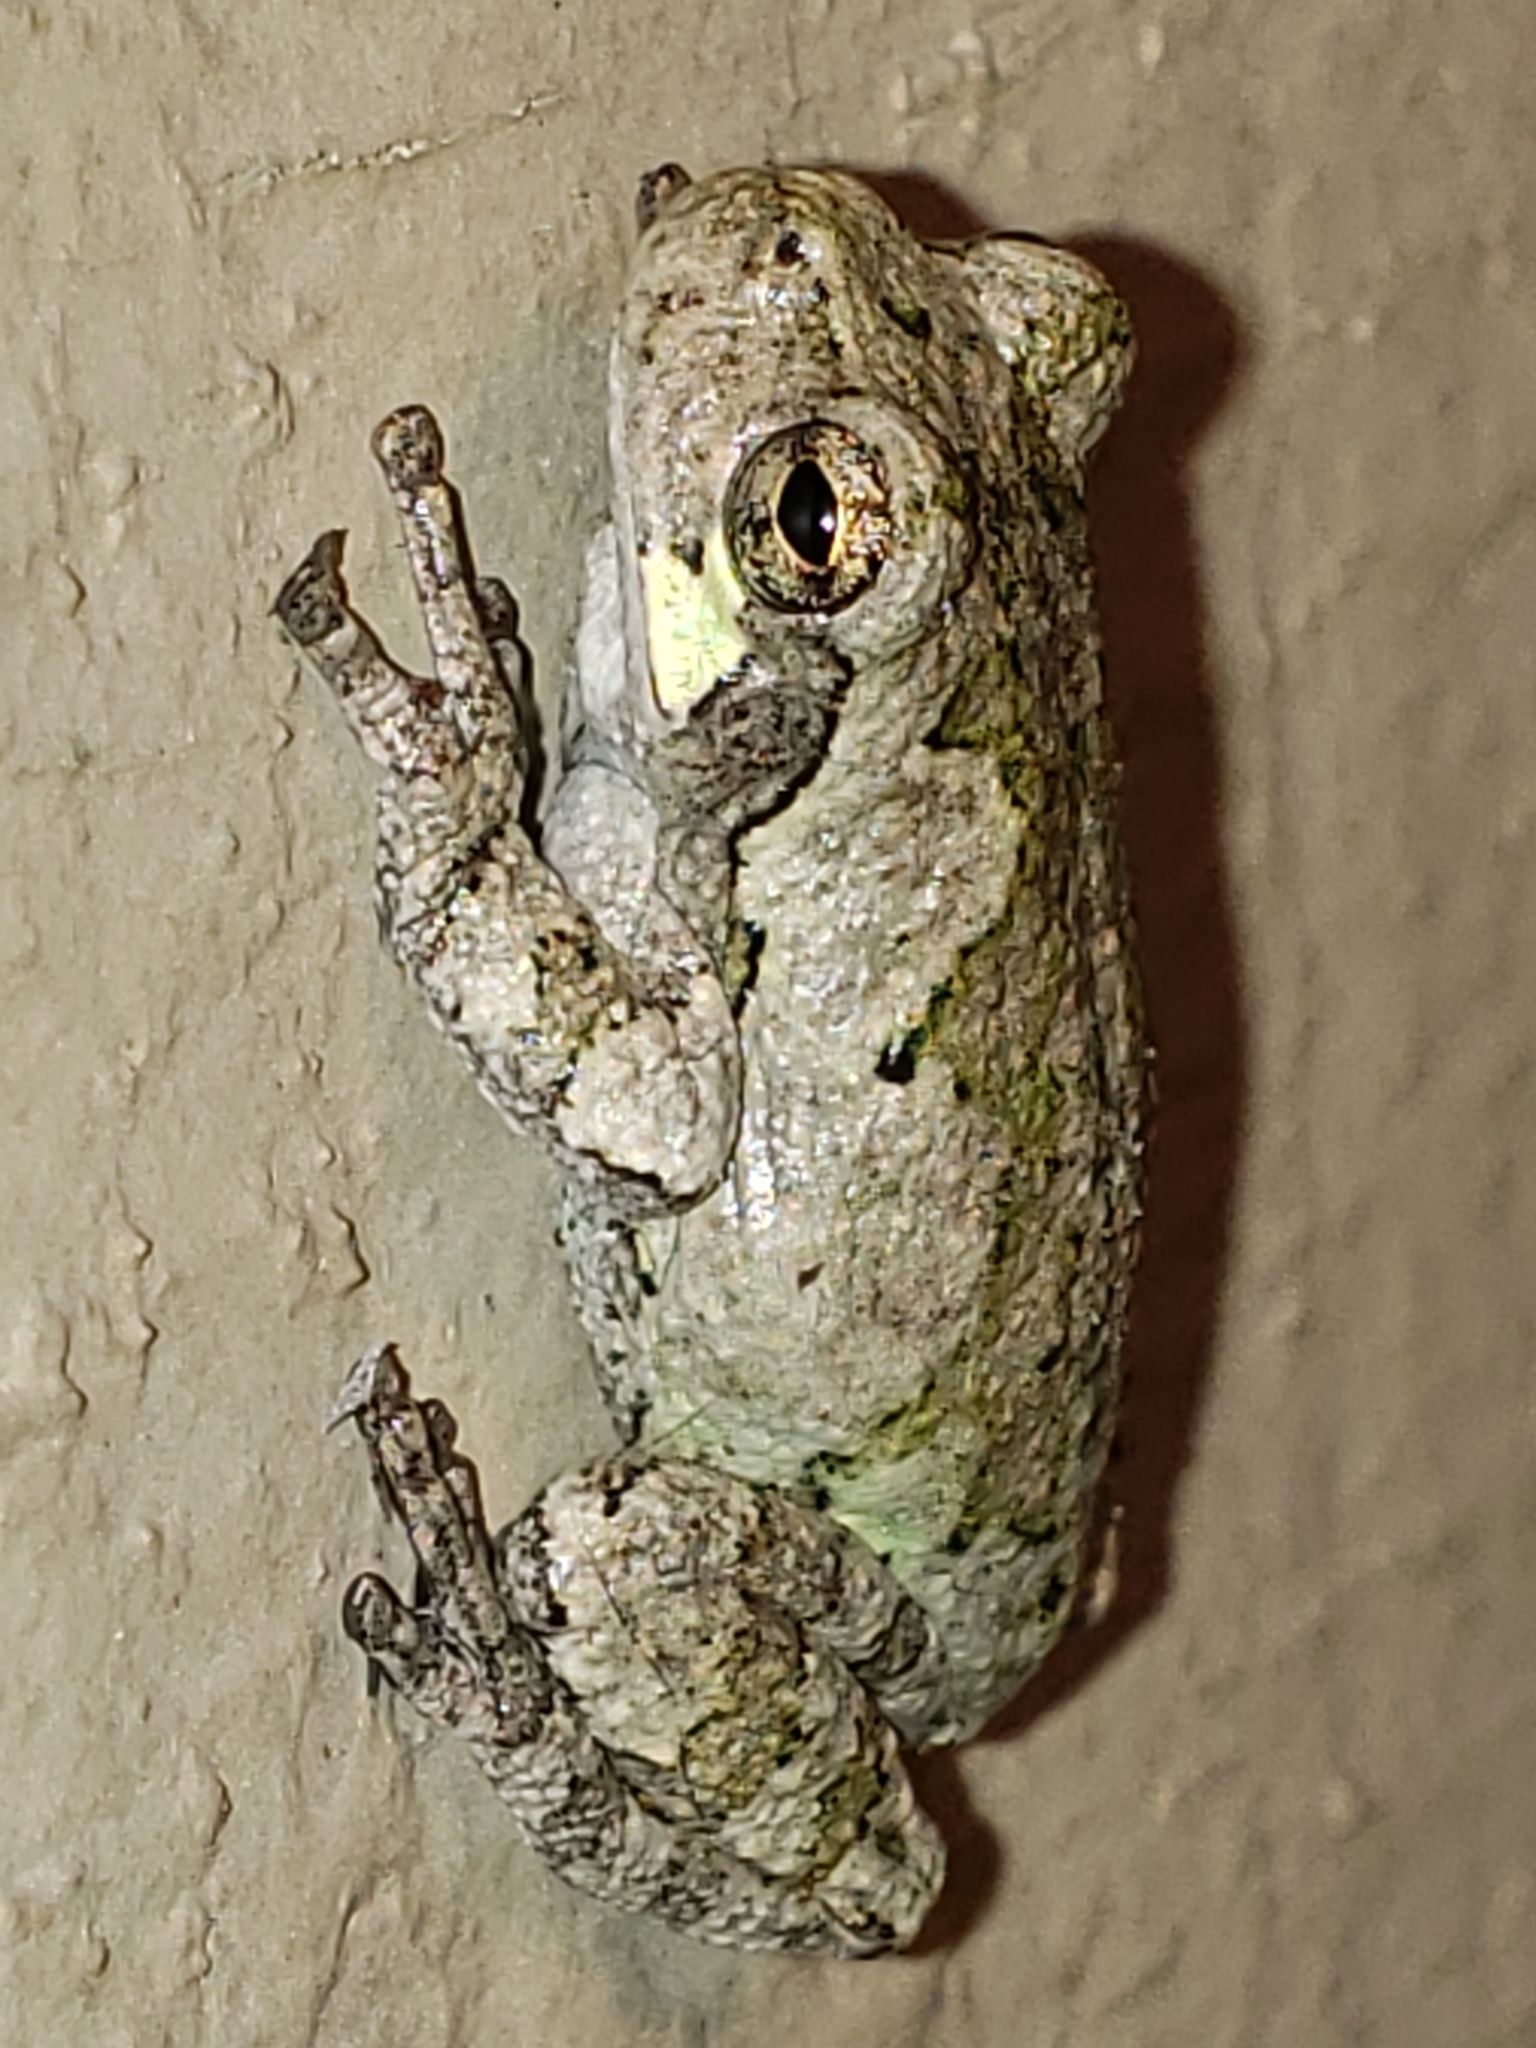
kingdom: Animalia
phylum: Chordata
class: Amphibia
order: Anura
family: Hylidae
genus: Hyla
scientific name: Hyla
